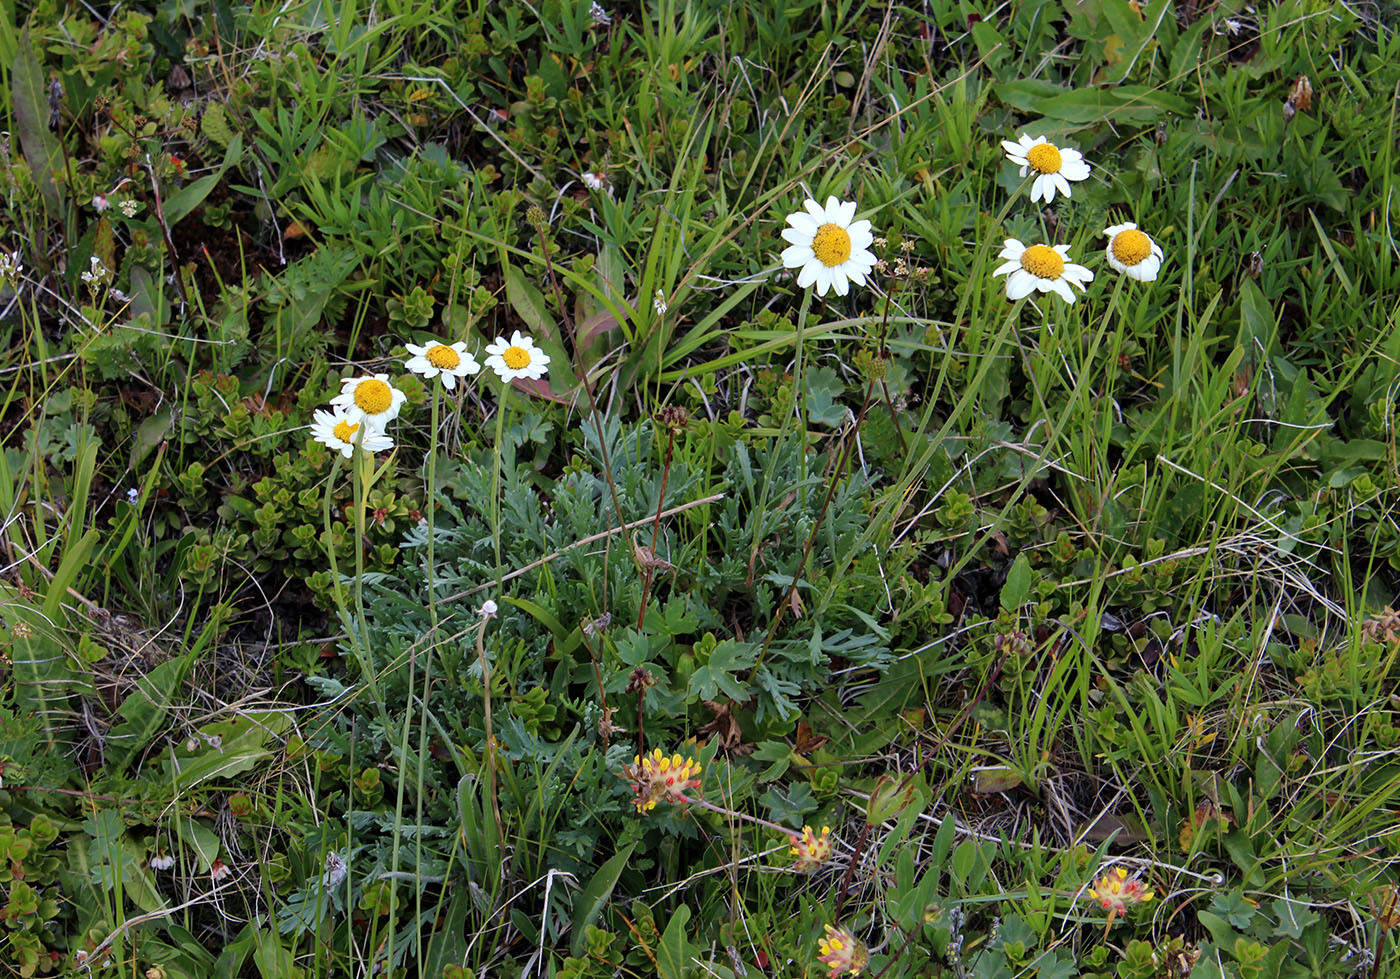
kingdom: Plantae
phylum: Tracheophyta
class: Magnoliopsida
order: Asterales
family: Asteraceae
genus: Anthemis
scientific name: Anthemis cretica
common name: Mountain dog-daisy
